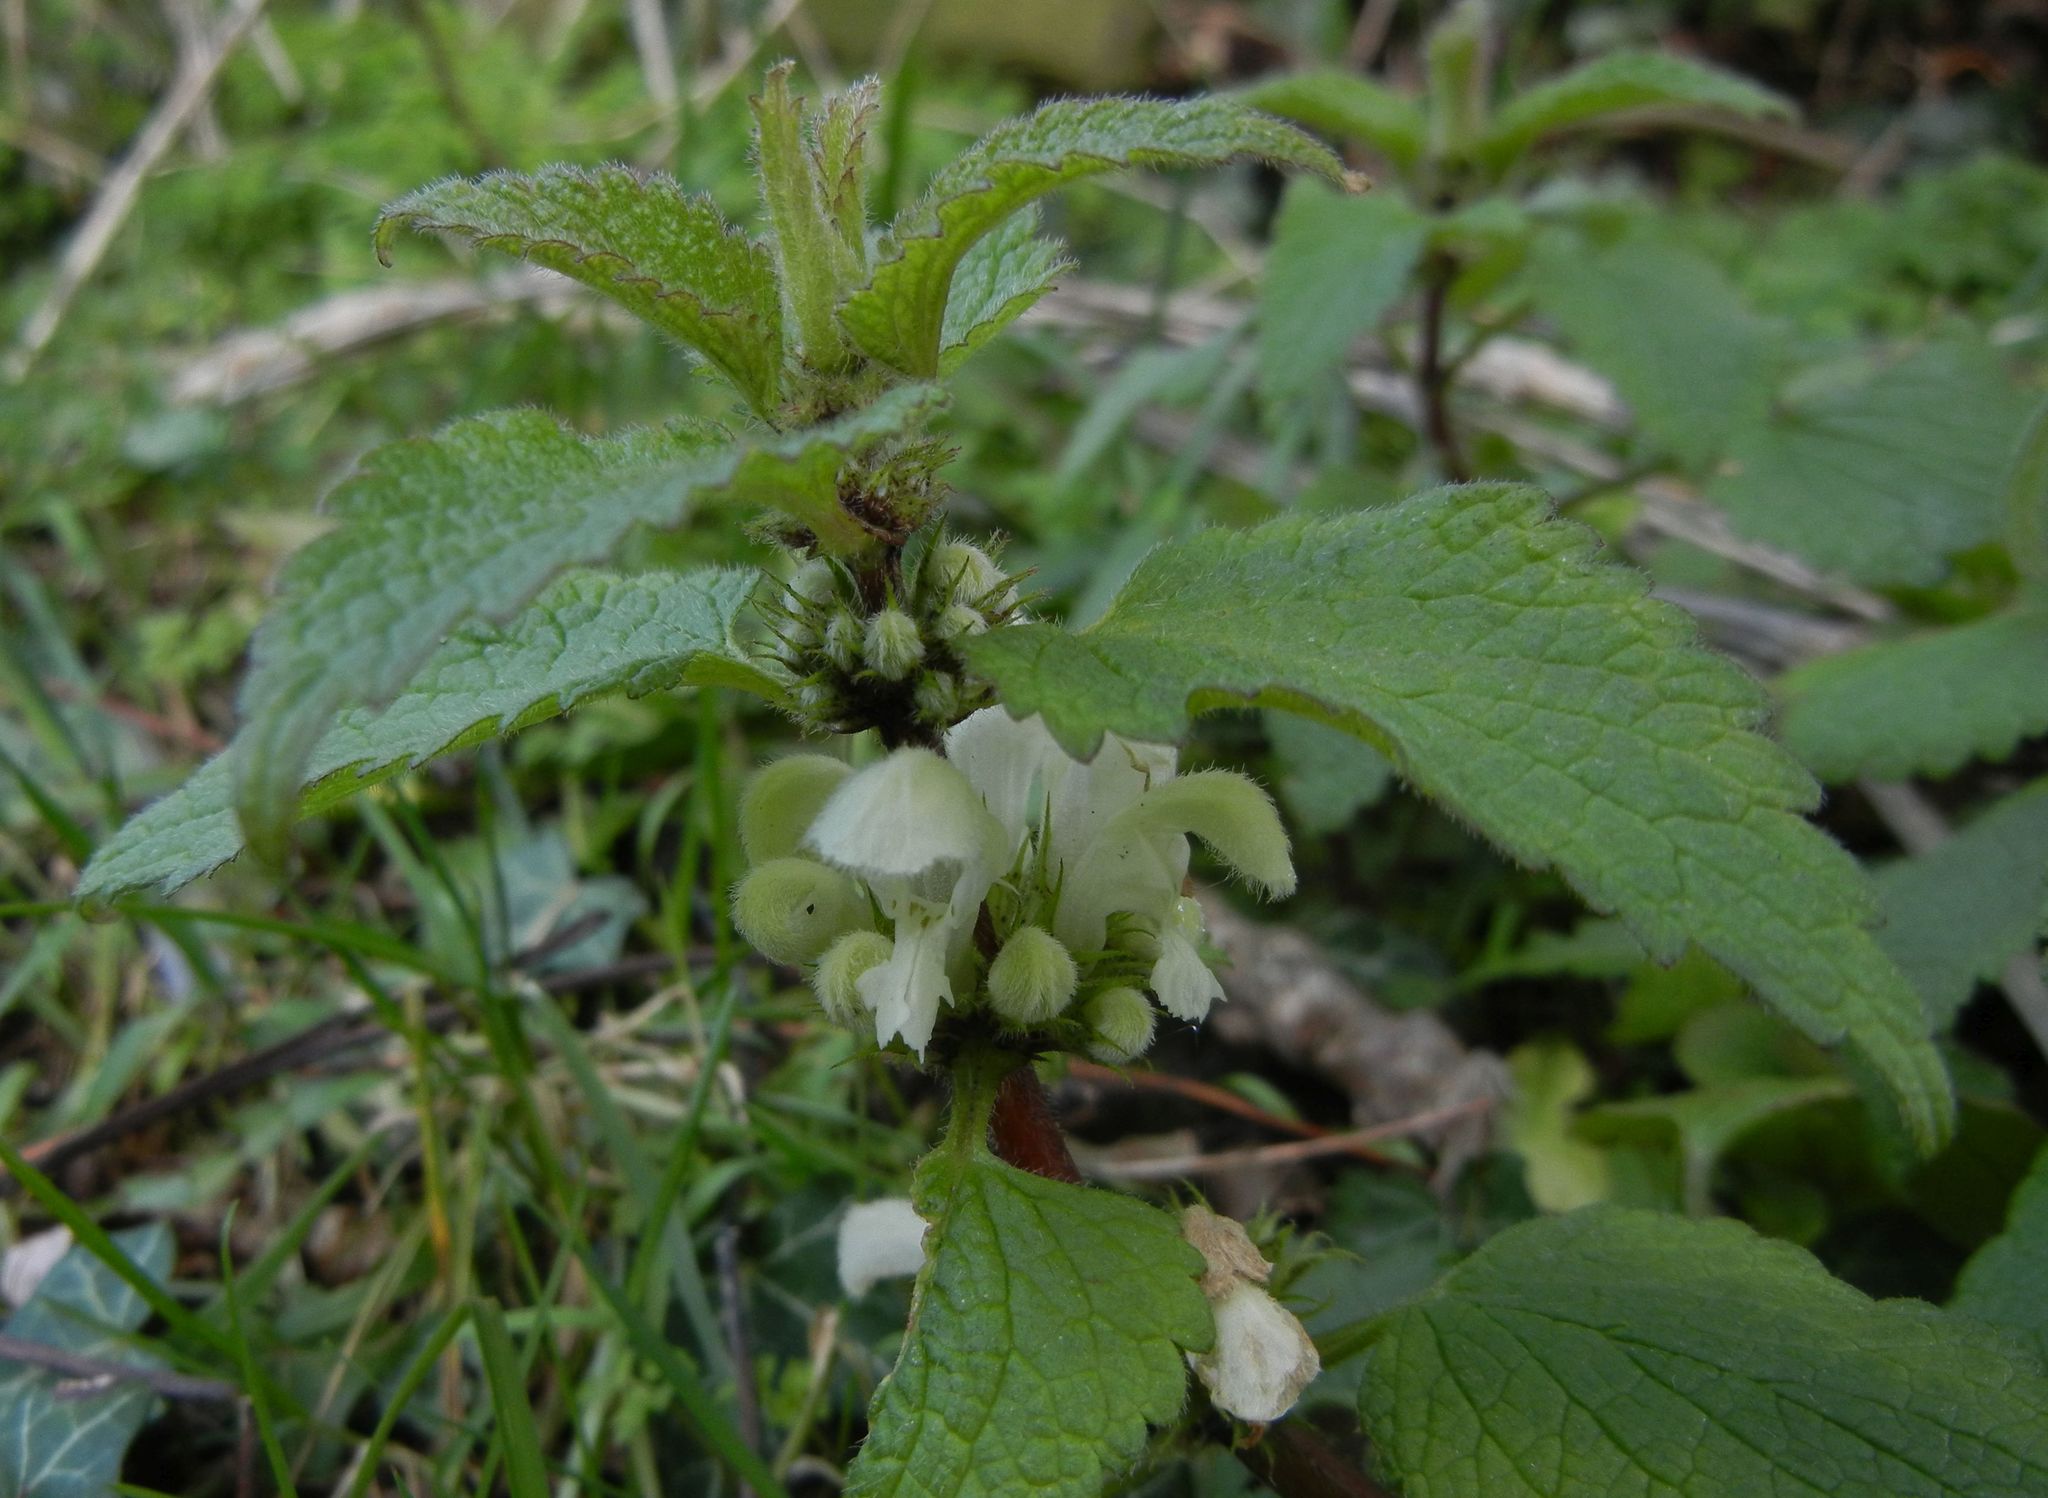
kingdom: Plantae
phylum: Tracheophyta
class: Magnoliopsida
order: Lamiales
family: Lamiaceae
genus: Lamium
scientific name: Lamium album
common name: White dead-nettle
